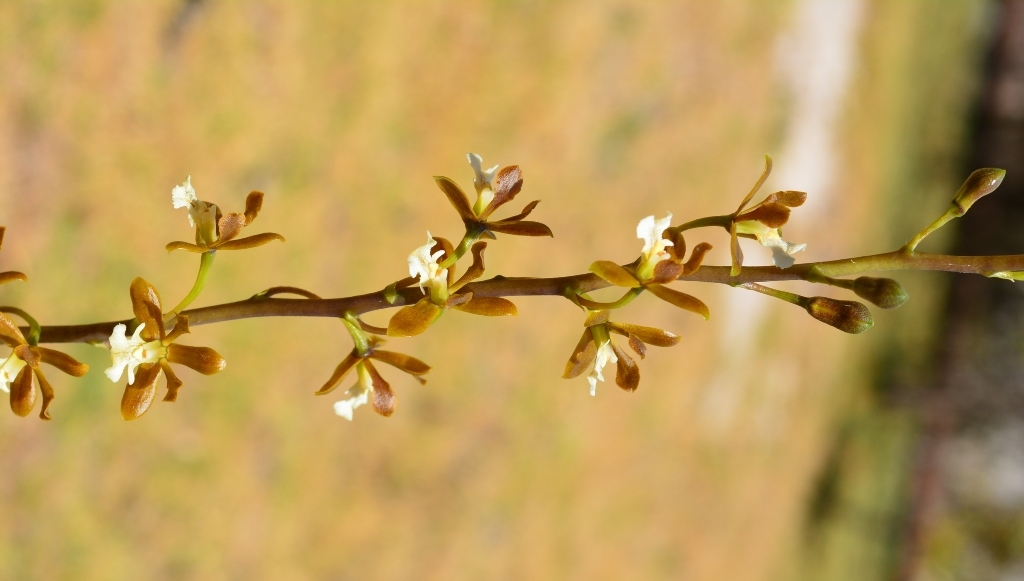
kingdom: Plantae
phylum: Tracheophyta
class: Liliopsida
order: Asparagales
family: Orchidaceae
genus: Prosthechea
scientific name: Prosthechea varicosa
